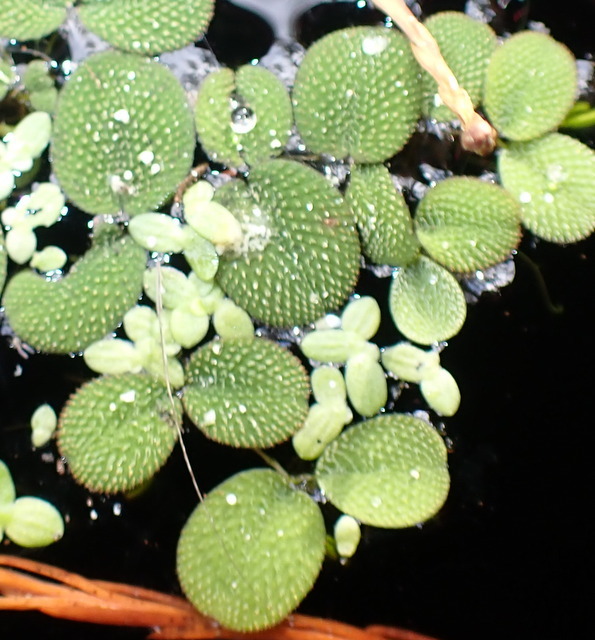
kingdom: Plantae
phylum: Tracheophyta
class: Polypodiopsida
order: Salviniales
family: Salviniaceae
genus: Salvinia
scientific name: Salvinia minima
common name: Water spangles
